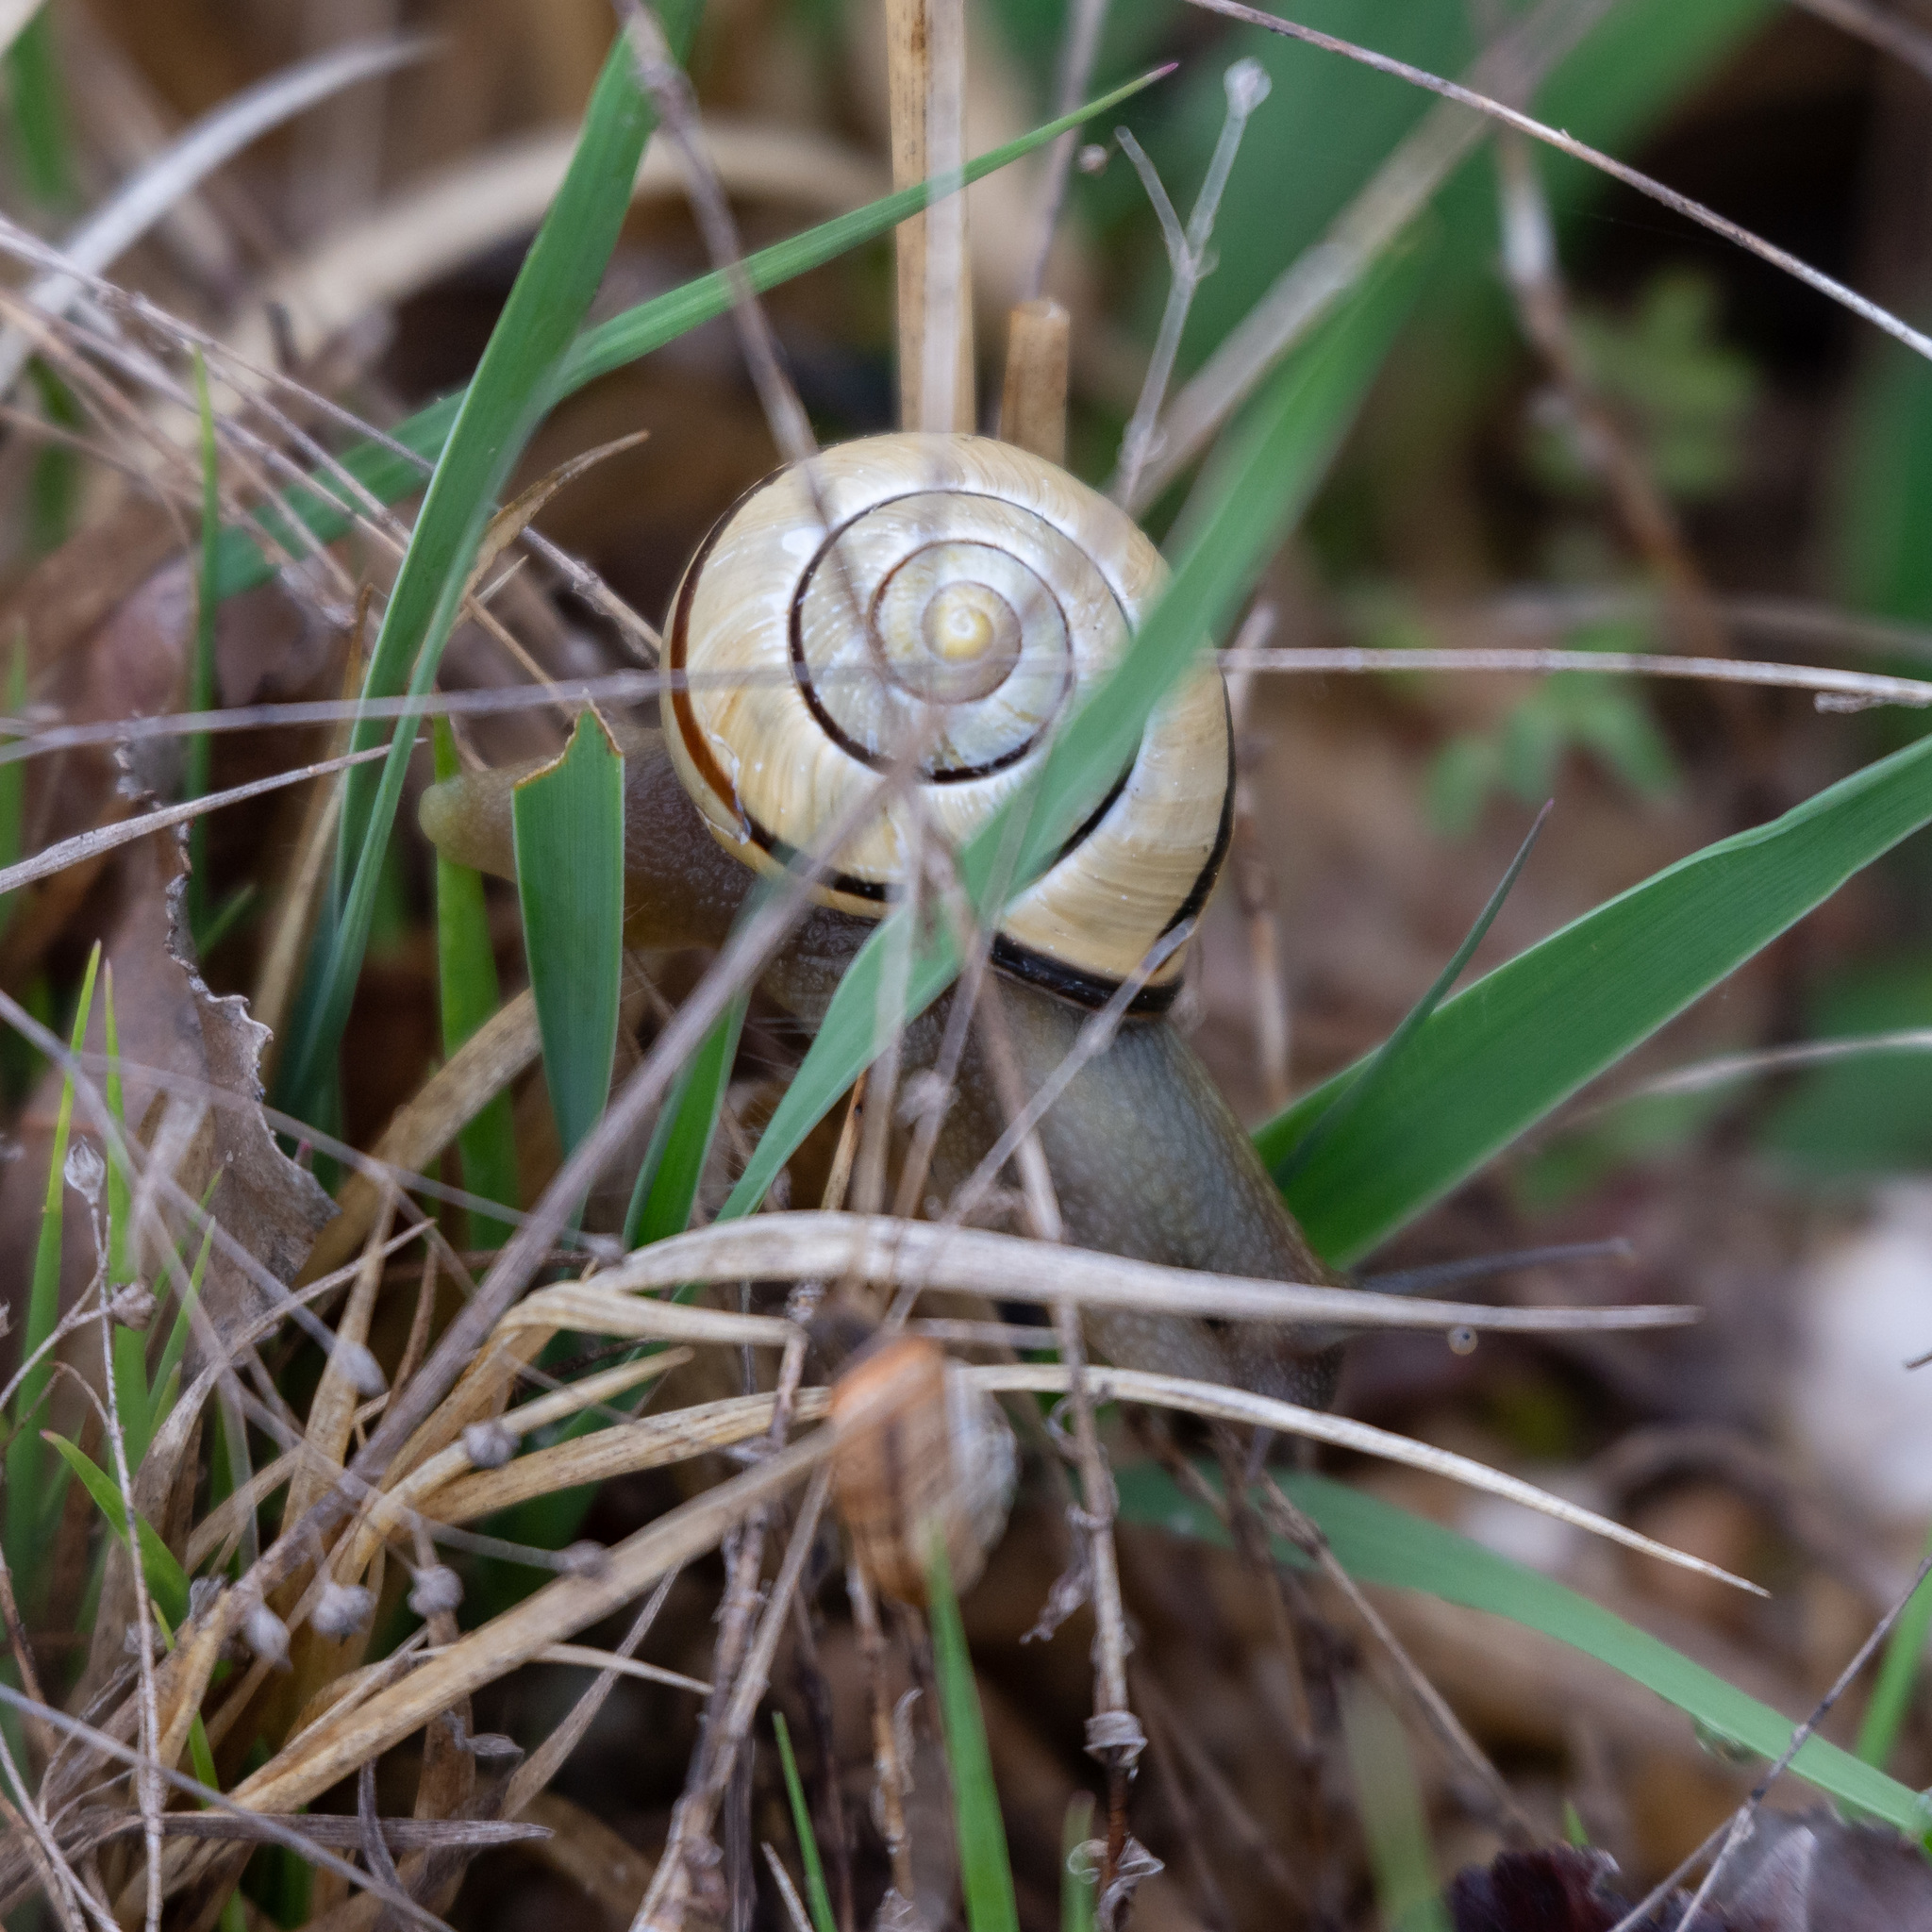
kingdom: Animalia
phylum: Mollusca
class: Gastropoda
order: Stylommatophora
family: Helicidae
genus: Cepaea
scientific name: Cepaea nemoralis
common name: Grovesnail
